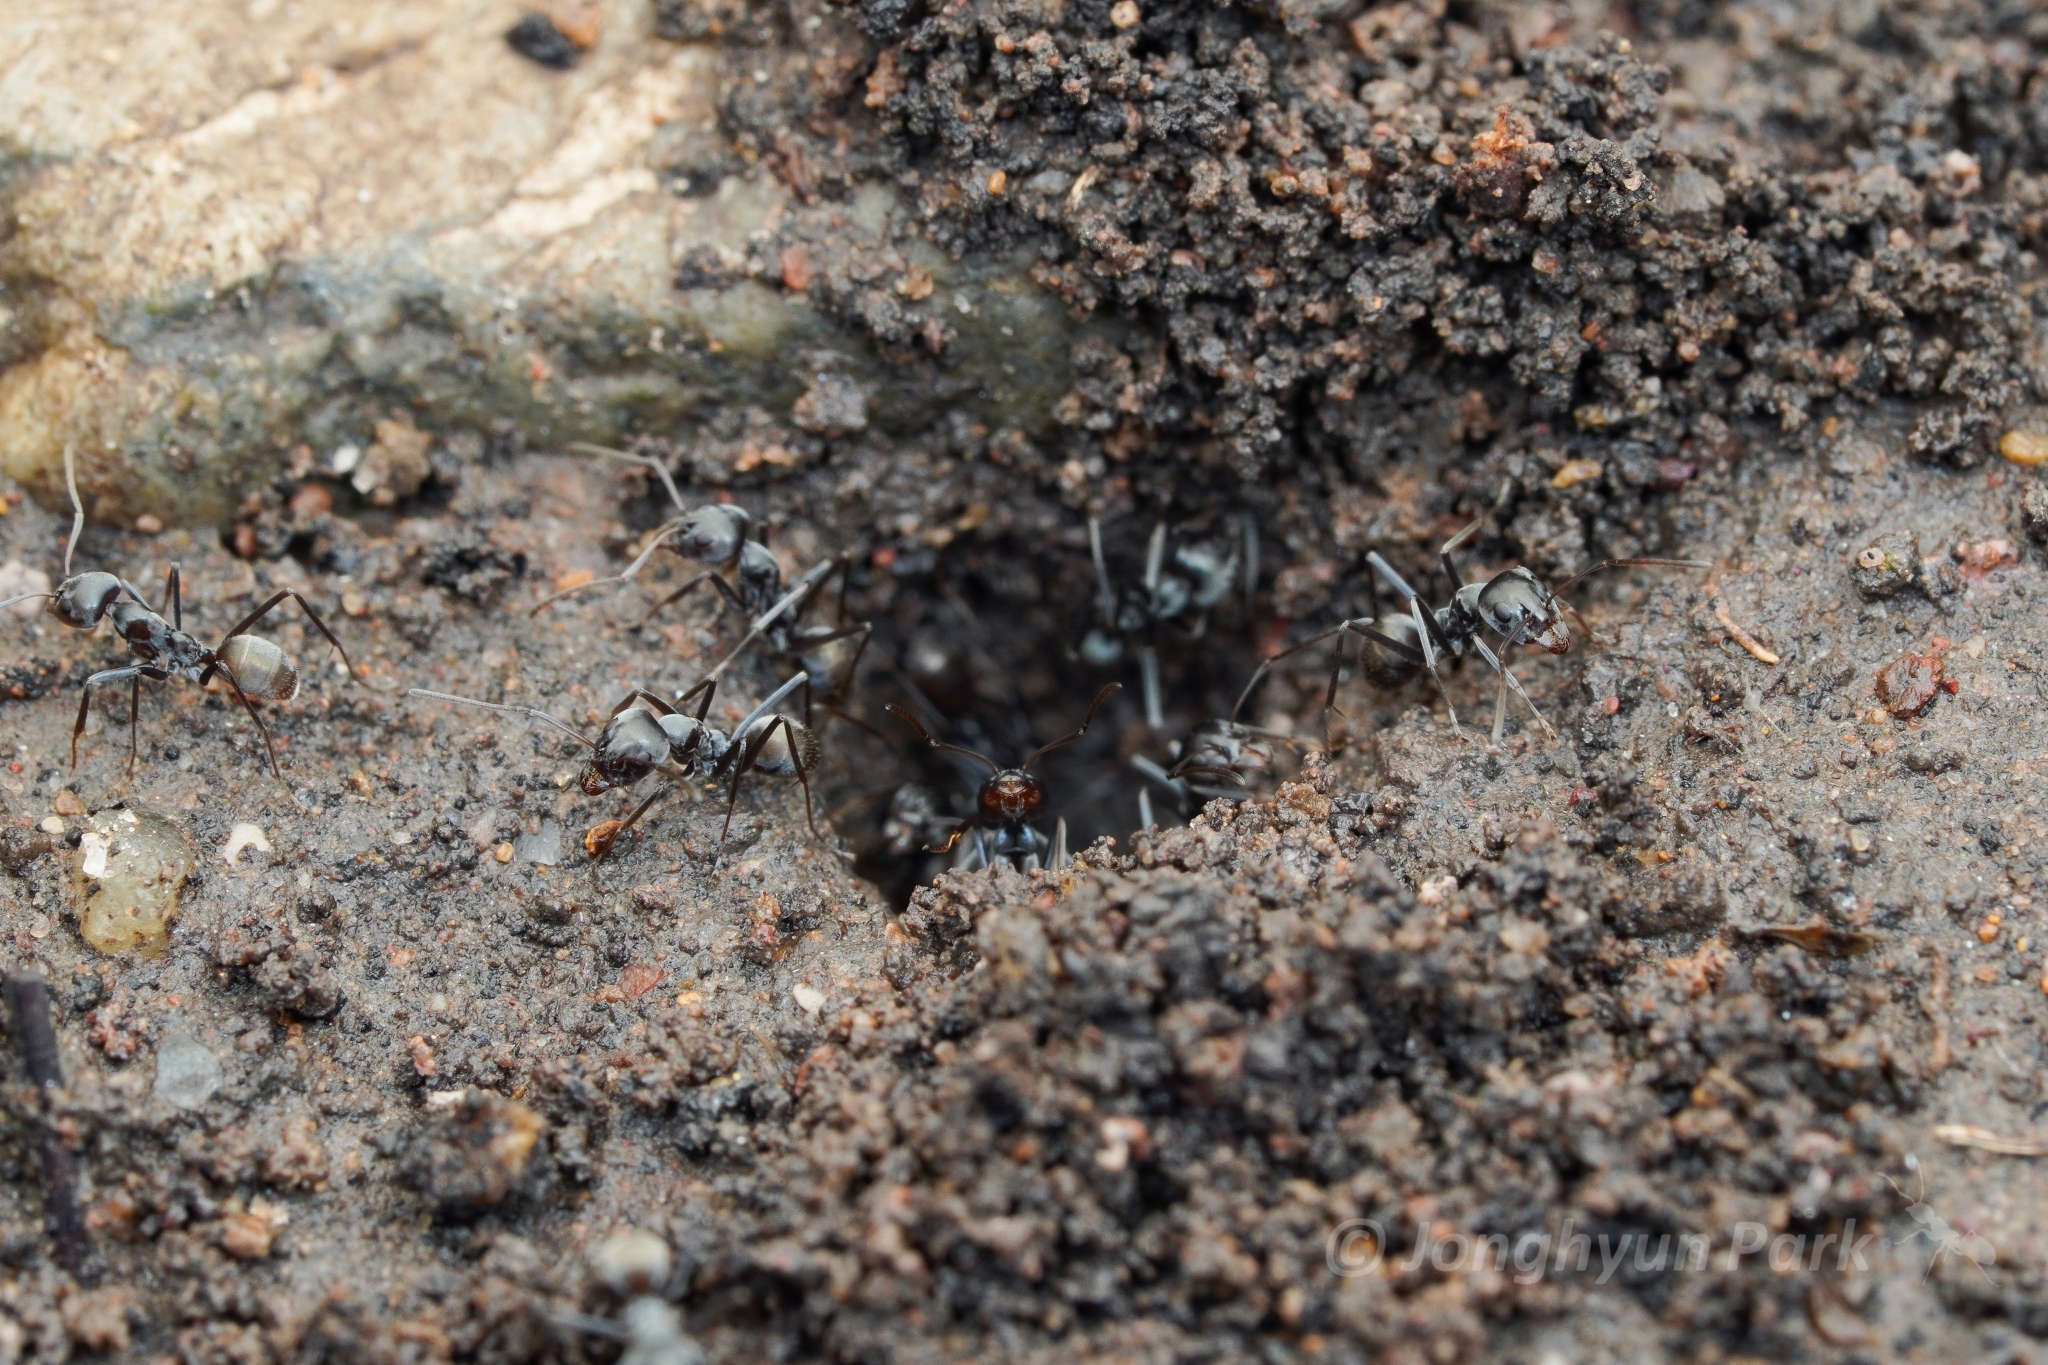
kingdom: Animalia
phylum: Arthropoda
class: Insecta
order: Hymenoptera
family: Formicidae
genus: Iridomyrmex
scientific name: Iridomyrmex anceps
